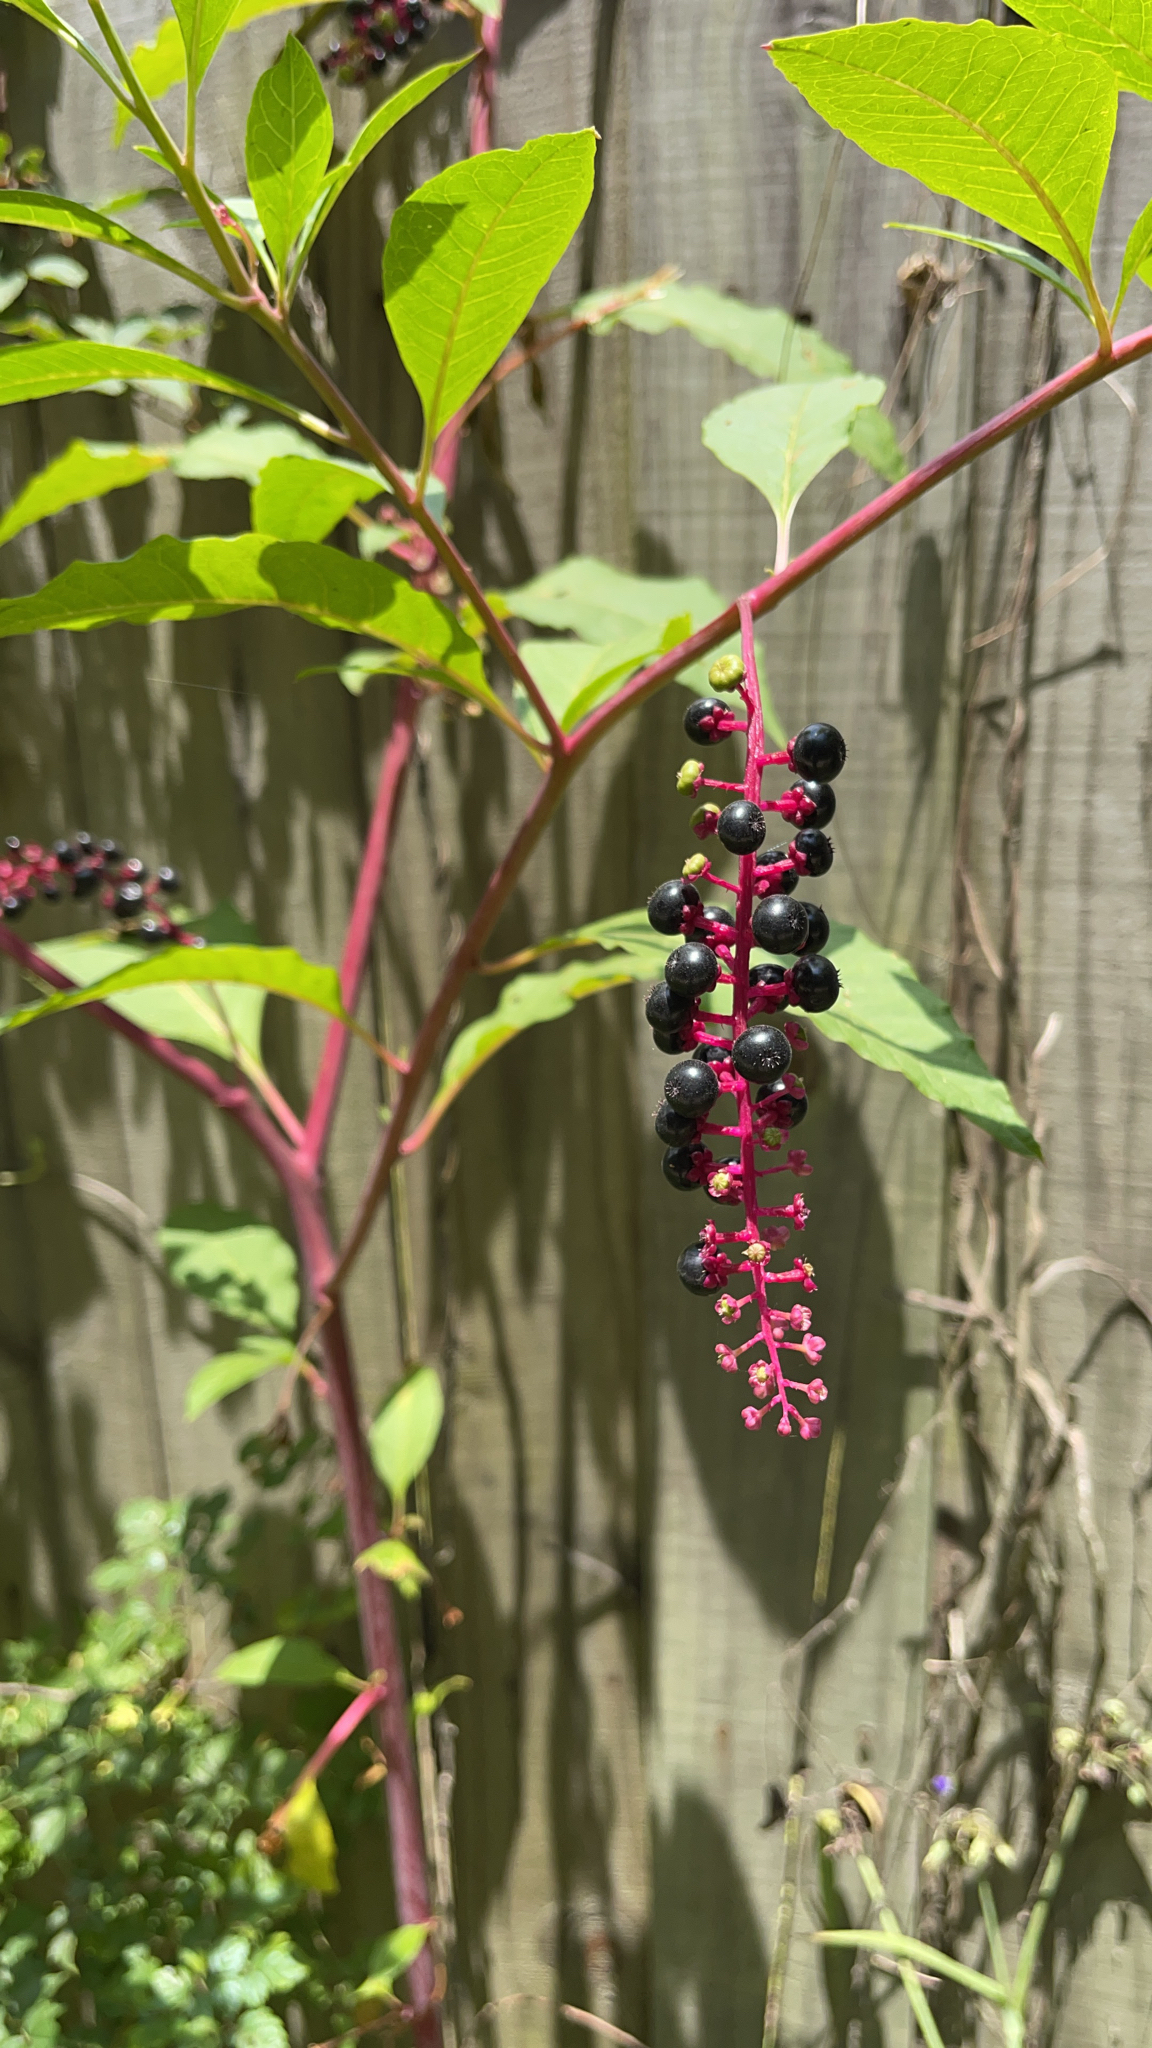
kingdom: Plantae
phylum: Tracheophyta
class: Magnoliopsida
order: Caryophyllales
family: Phytolaccaceae
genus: Phytolacca
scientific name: Phytolacca americana
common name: American pokeweed
